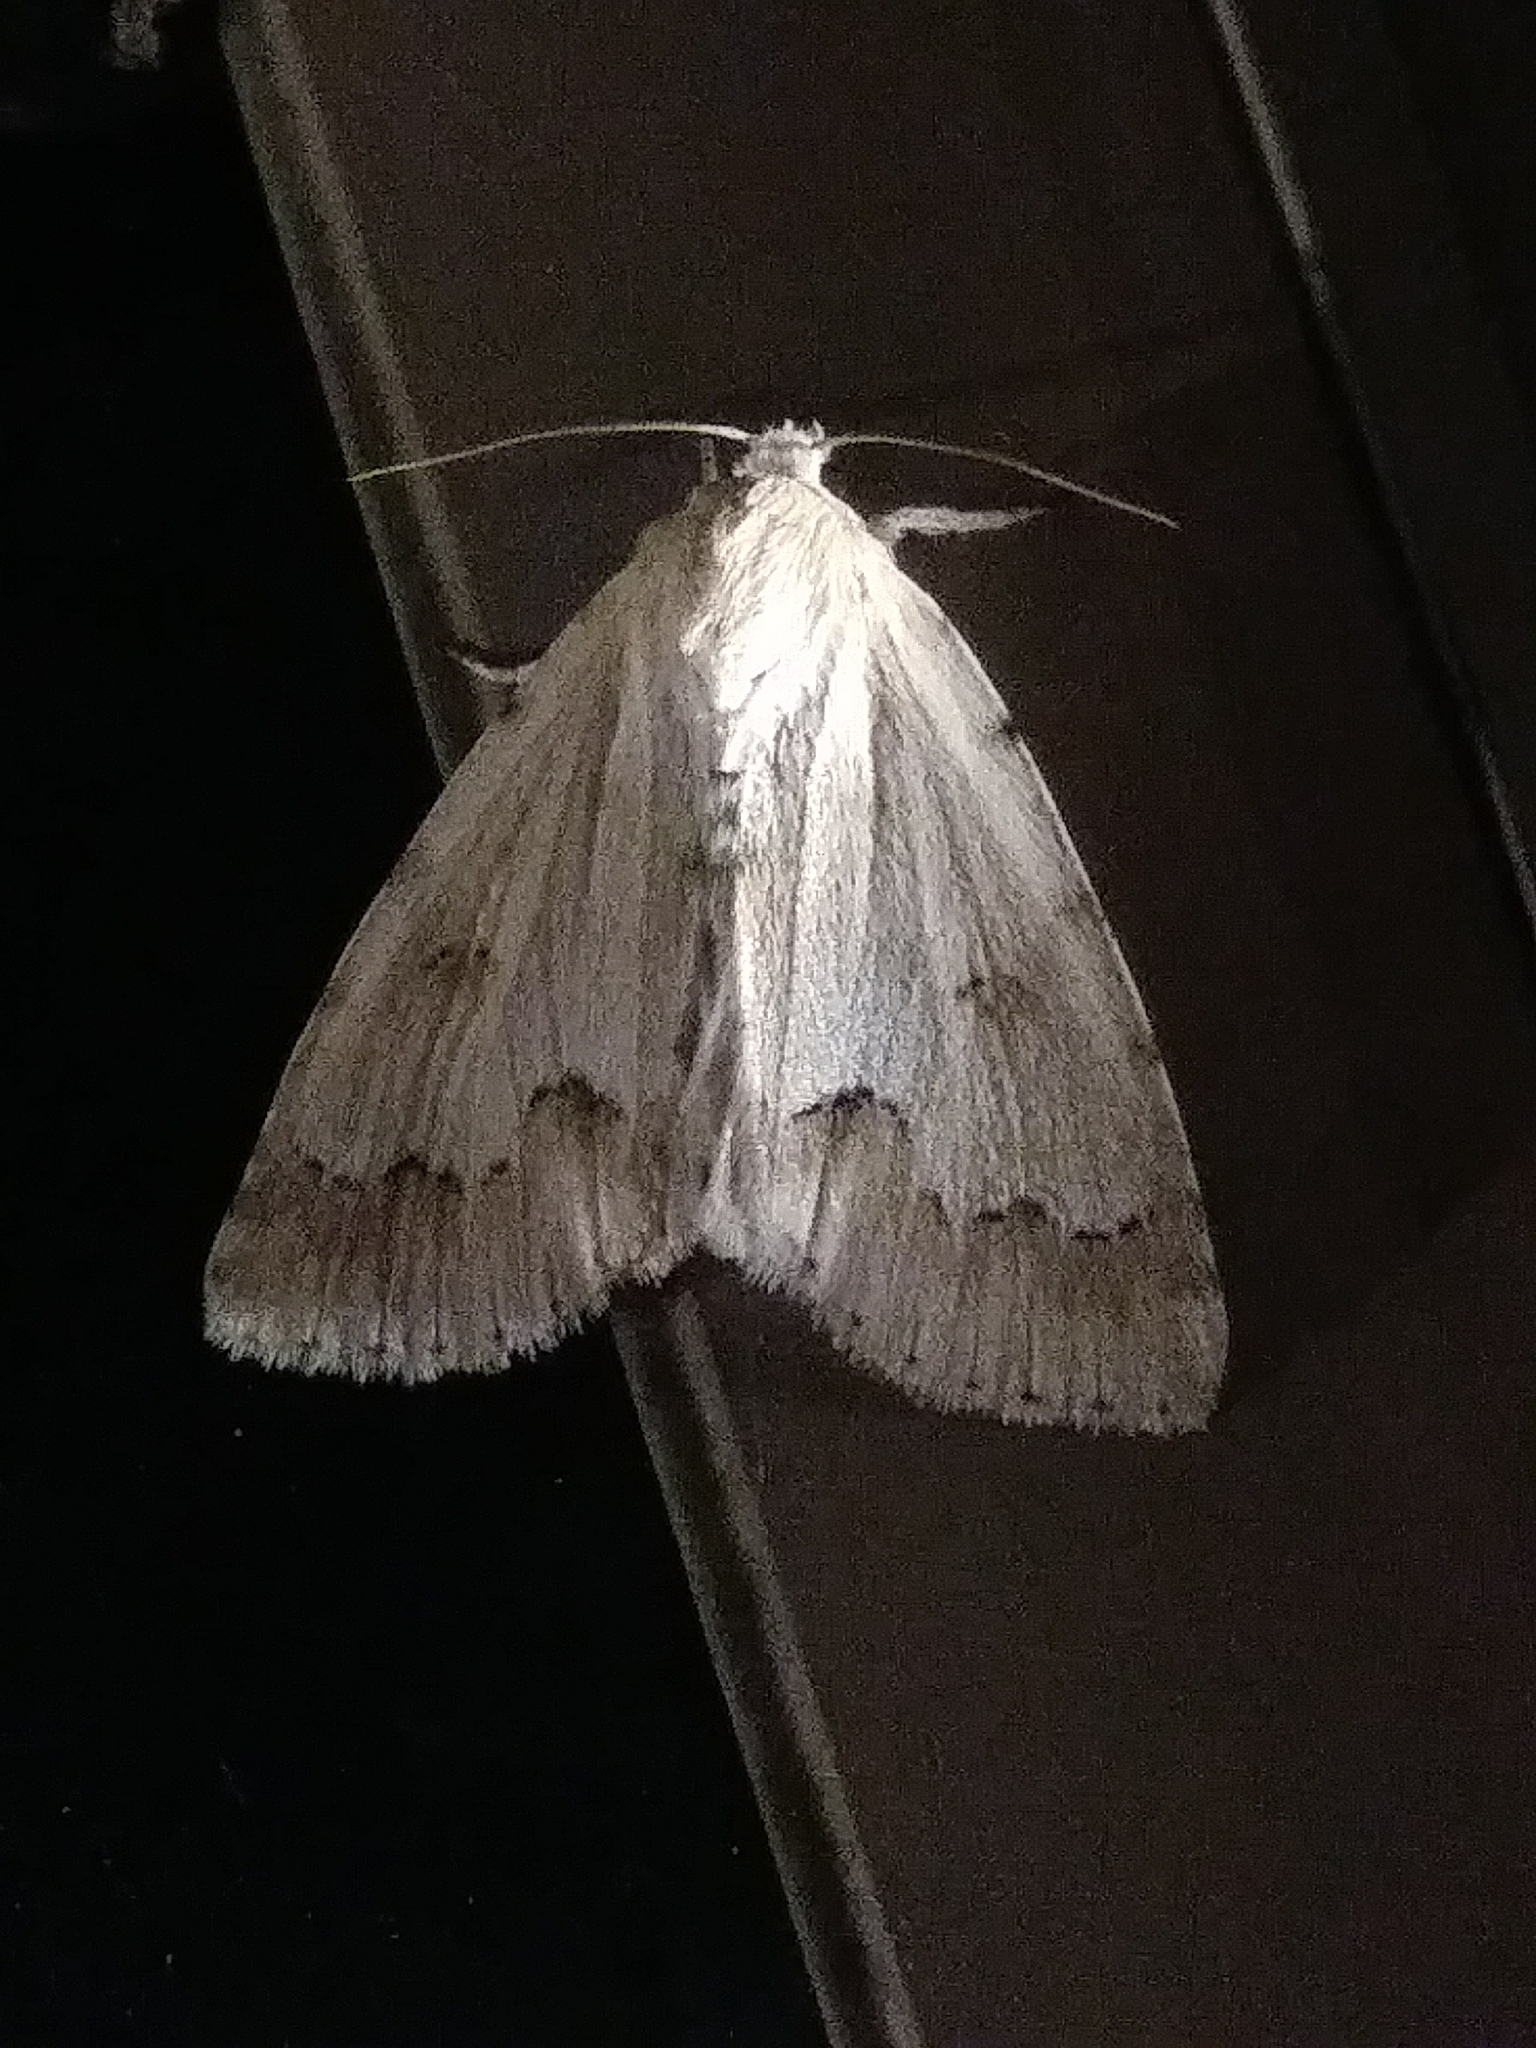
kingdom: Animalia
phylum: Arthropoda
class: Insecta
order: Lepidoptera
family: Noctuidae
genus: Acronicta
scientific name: Acronicta innotata
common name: Unmarked dagger
